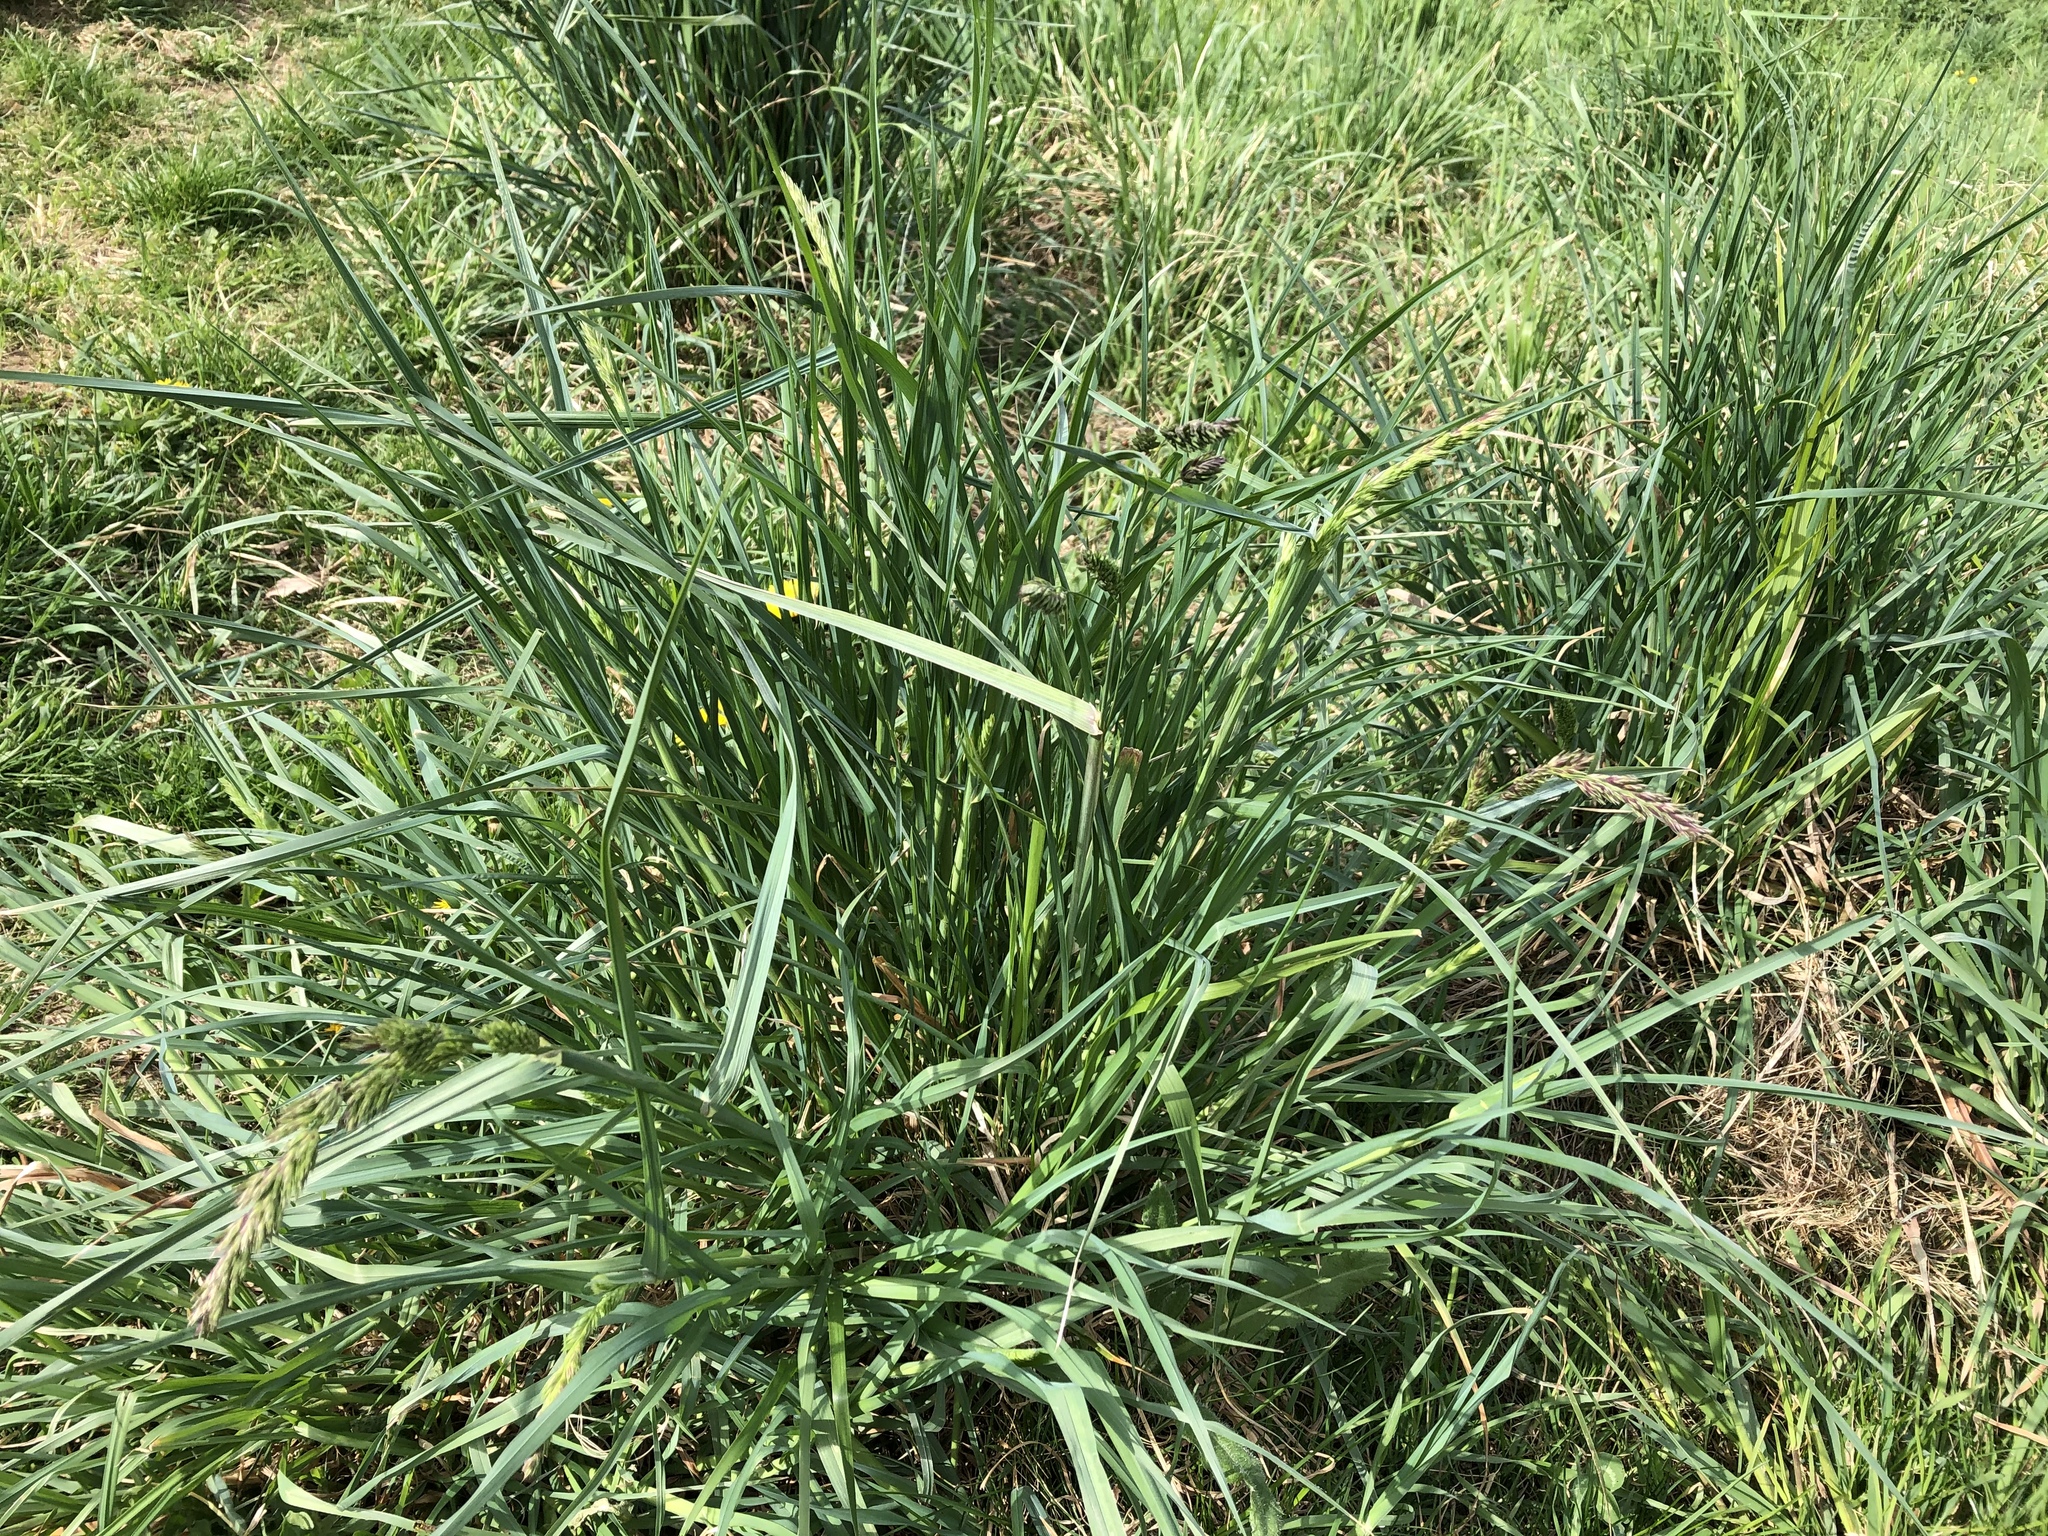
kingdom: Plantae
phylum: Tracheophyta
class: Liliopsida
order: Poales
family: Poaceae
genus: Dactylis
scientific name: Dactylis glomerata
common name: Orchardgrass
